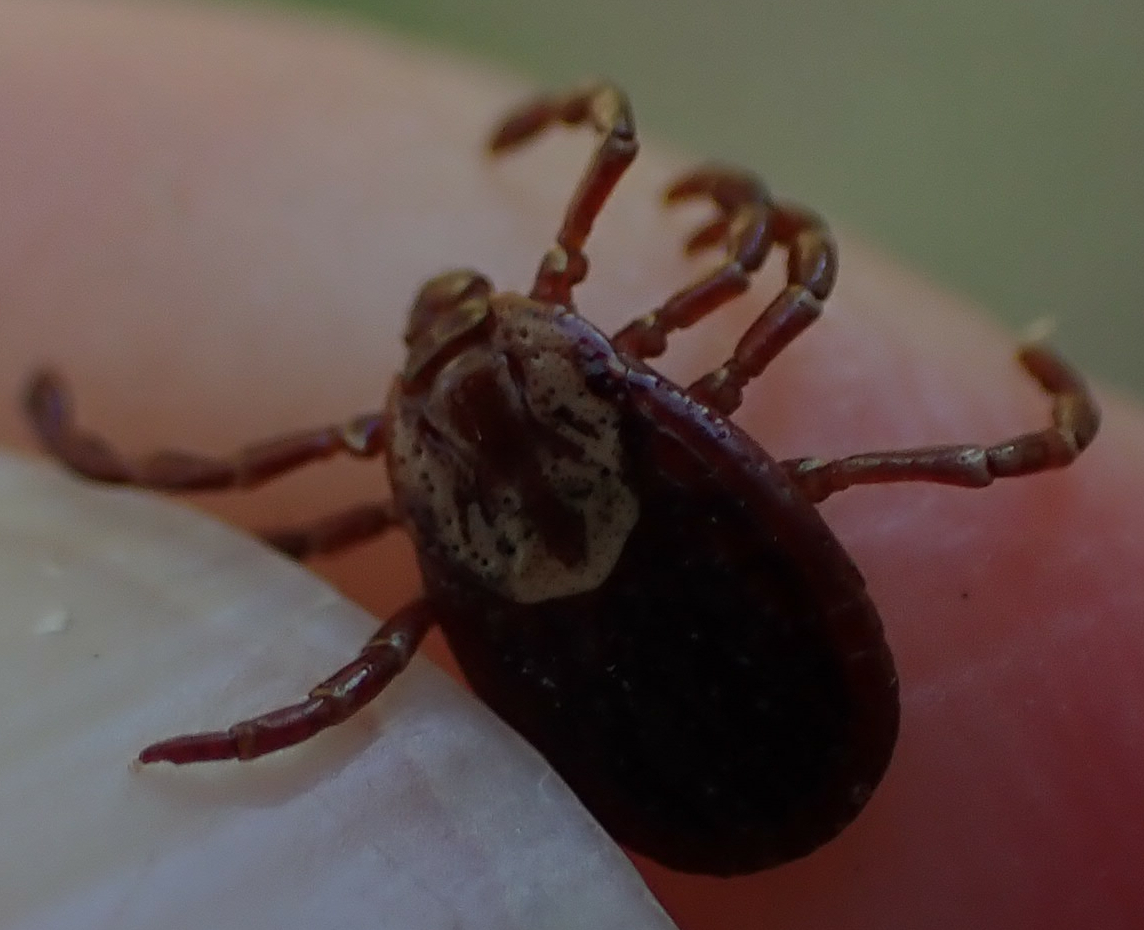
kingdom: Animalia
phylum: Arthropoda
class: Arachnida
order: Ixodida
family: Ixodidae
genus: Dermacentor
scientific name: Dermacentor variabilis
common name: American dog tick
